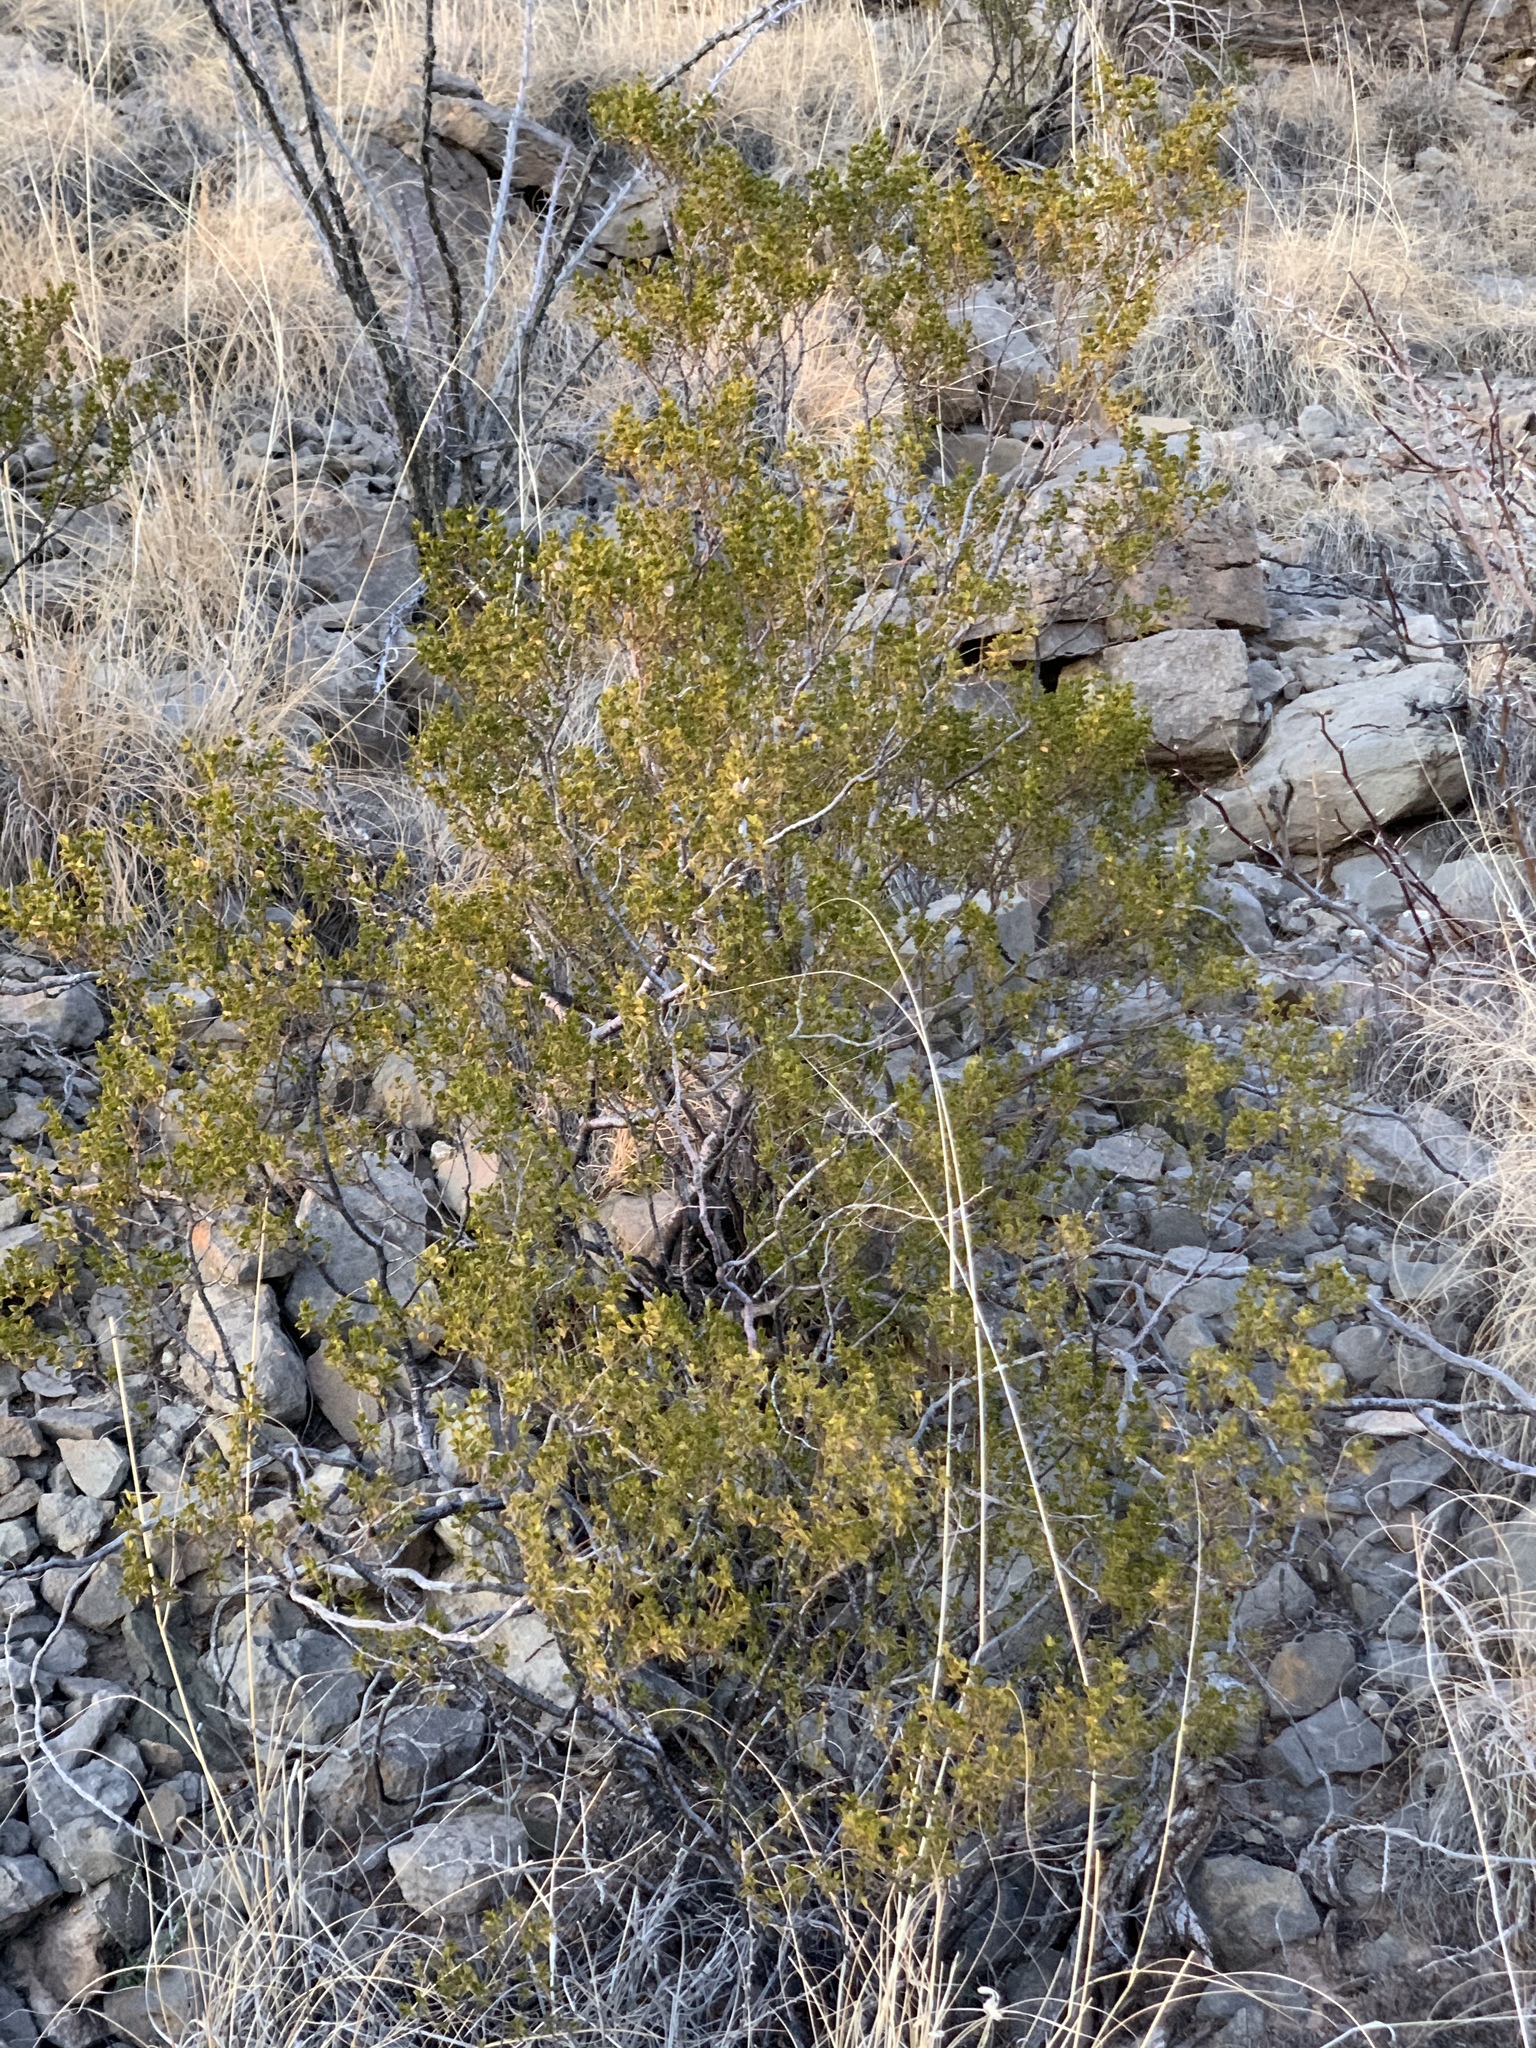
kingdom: Plantae
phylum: Tracheophyta
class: Magnoliopsida
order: Zygophyllales
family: Zygophyllaceae
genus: Larrea
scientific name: Larrea tridentata
